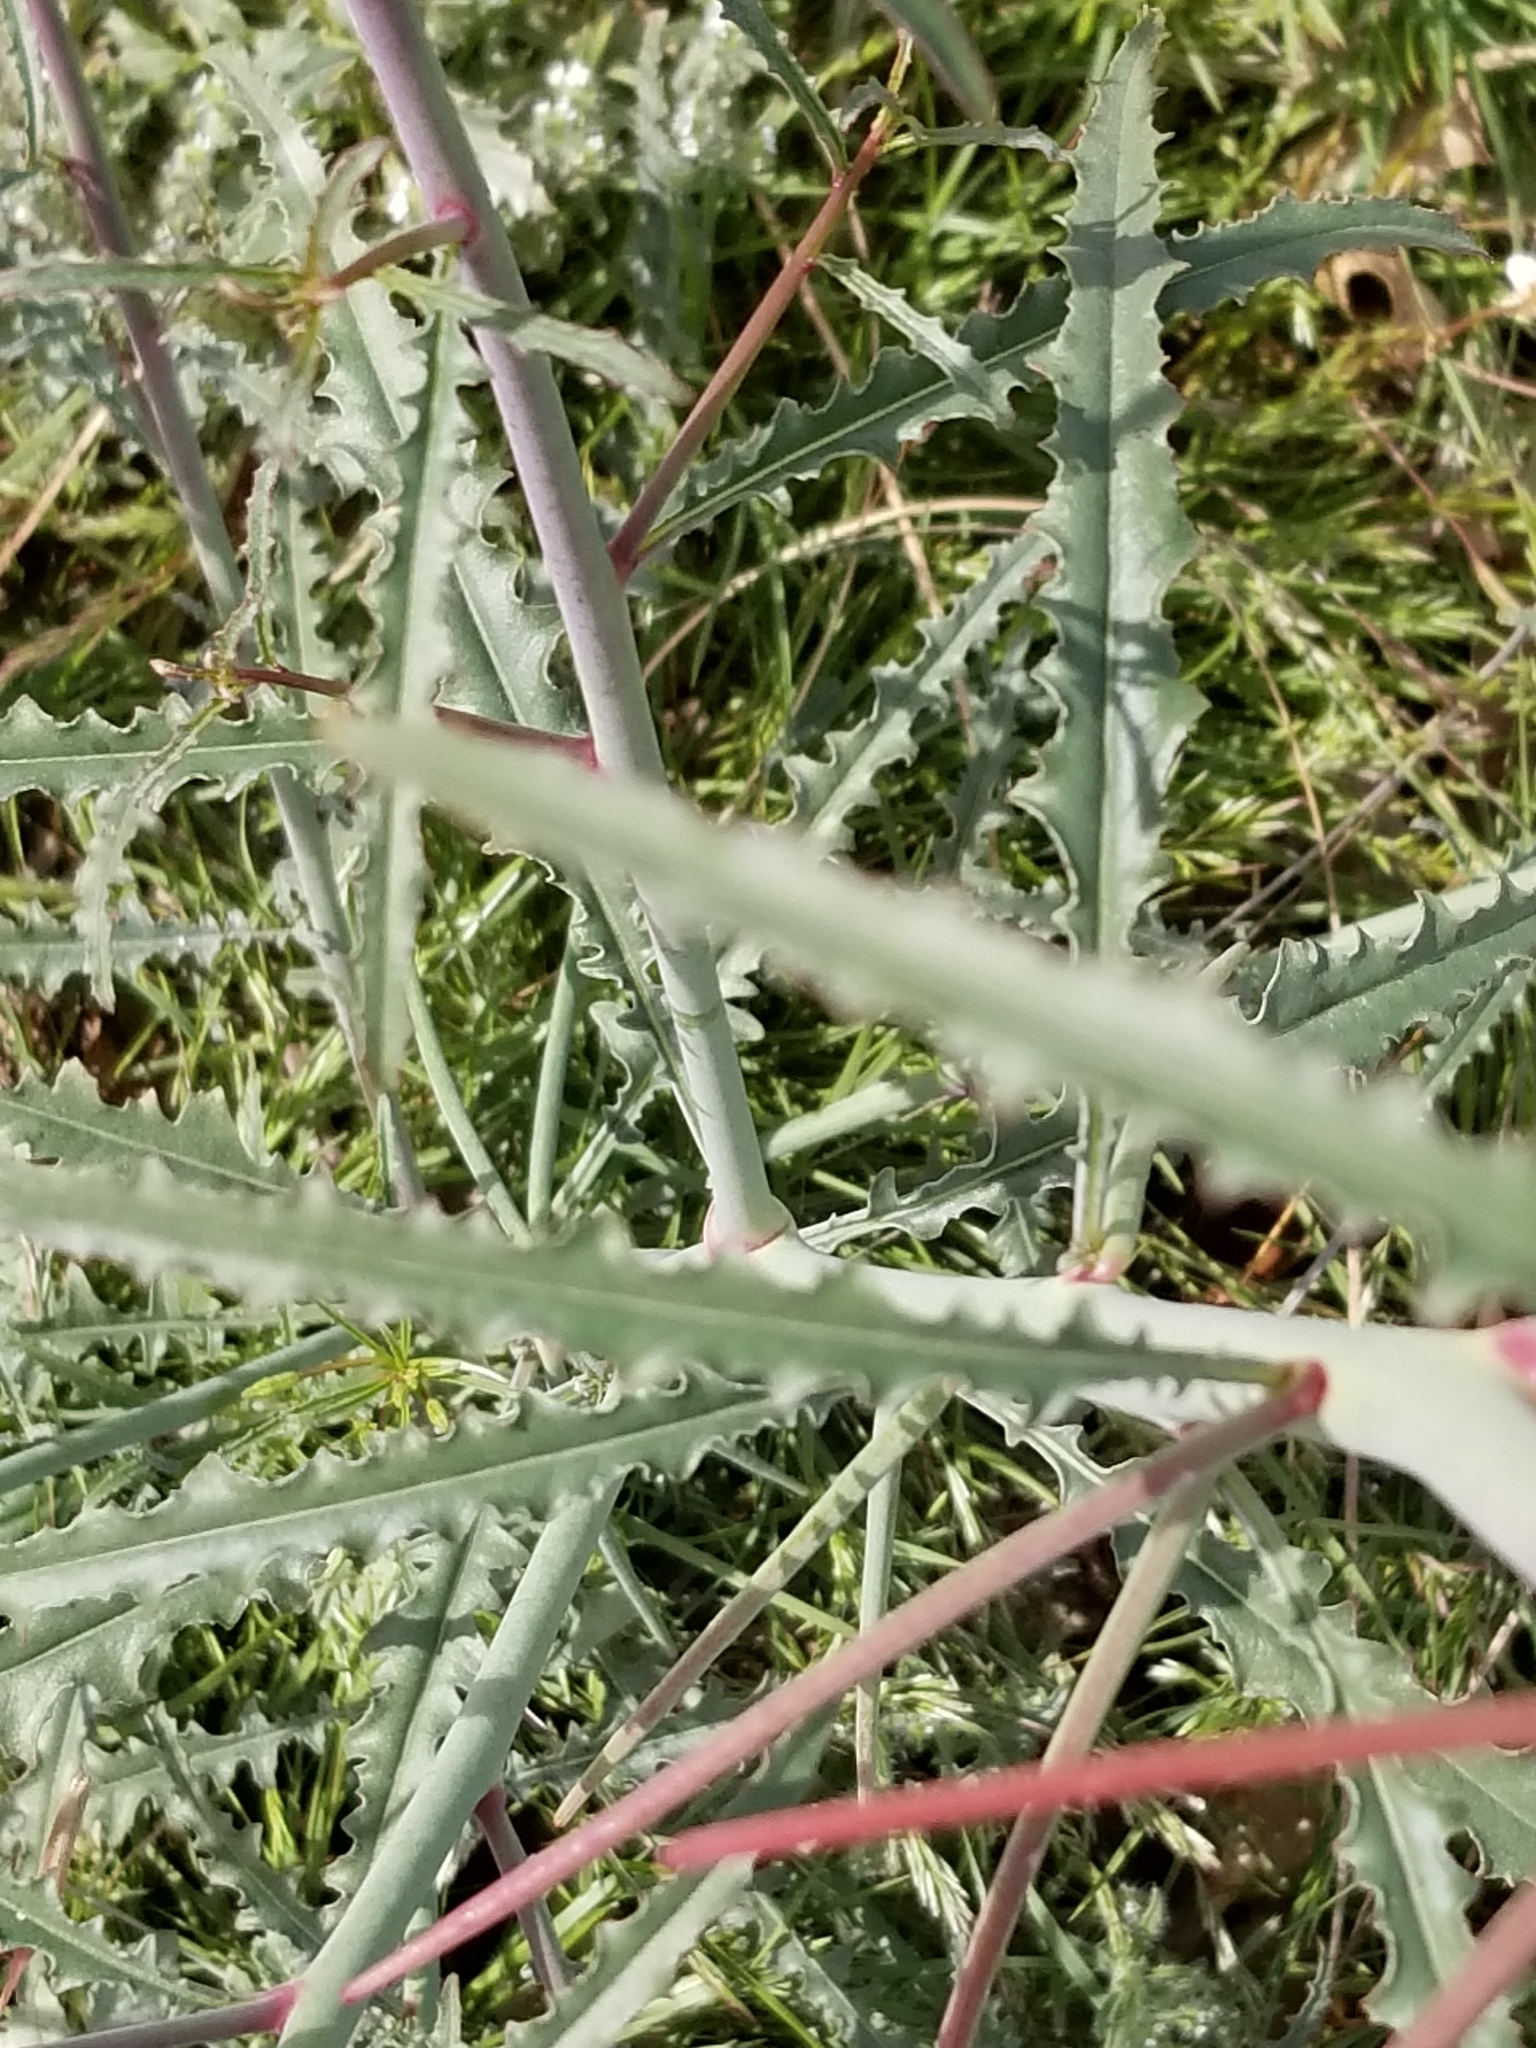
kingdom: Plantae
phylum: Tracheophyta
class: Magnoliopsida
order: Myrtales
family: Onagraceae
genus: Eulobus
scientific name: Eulobus californicus
